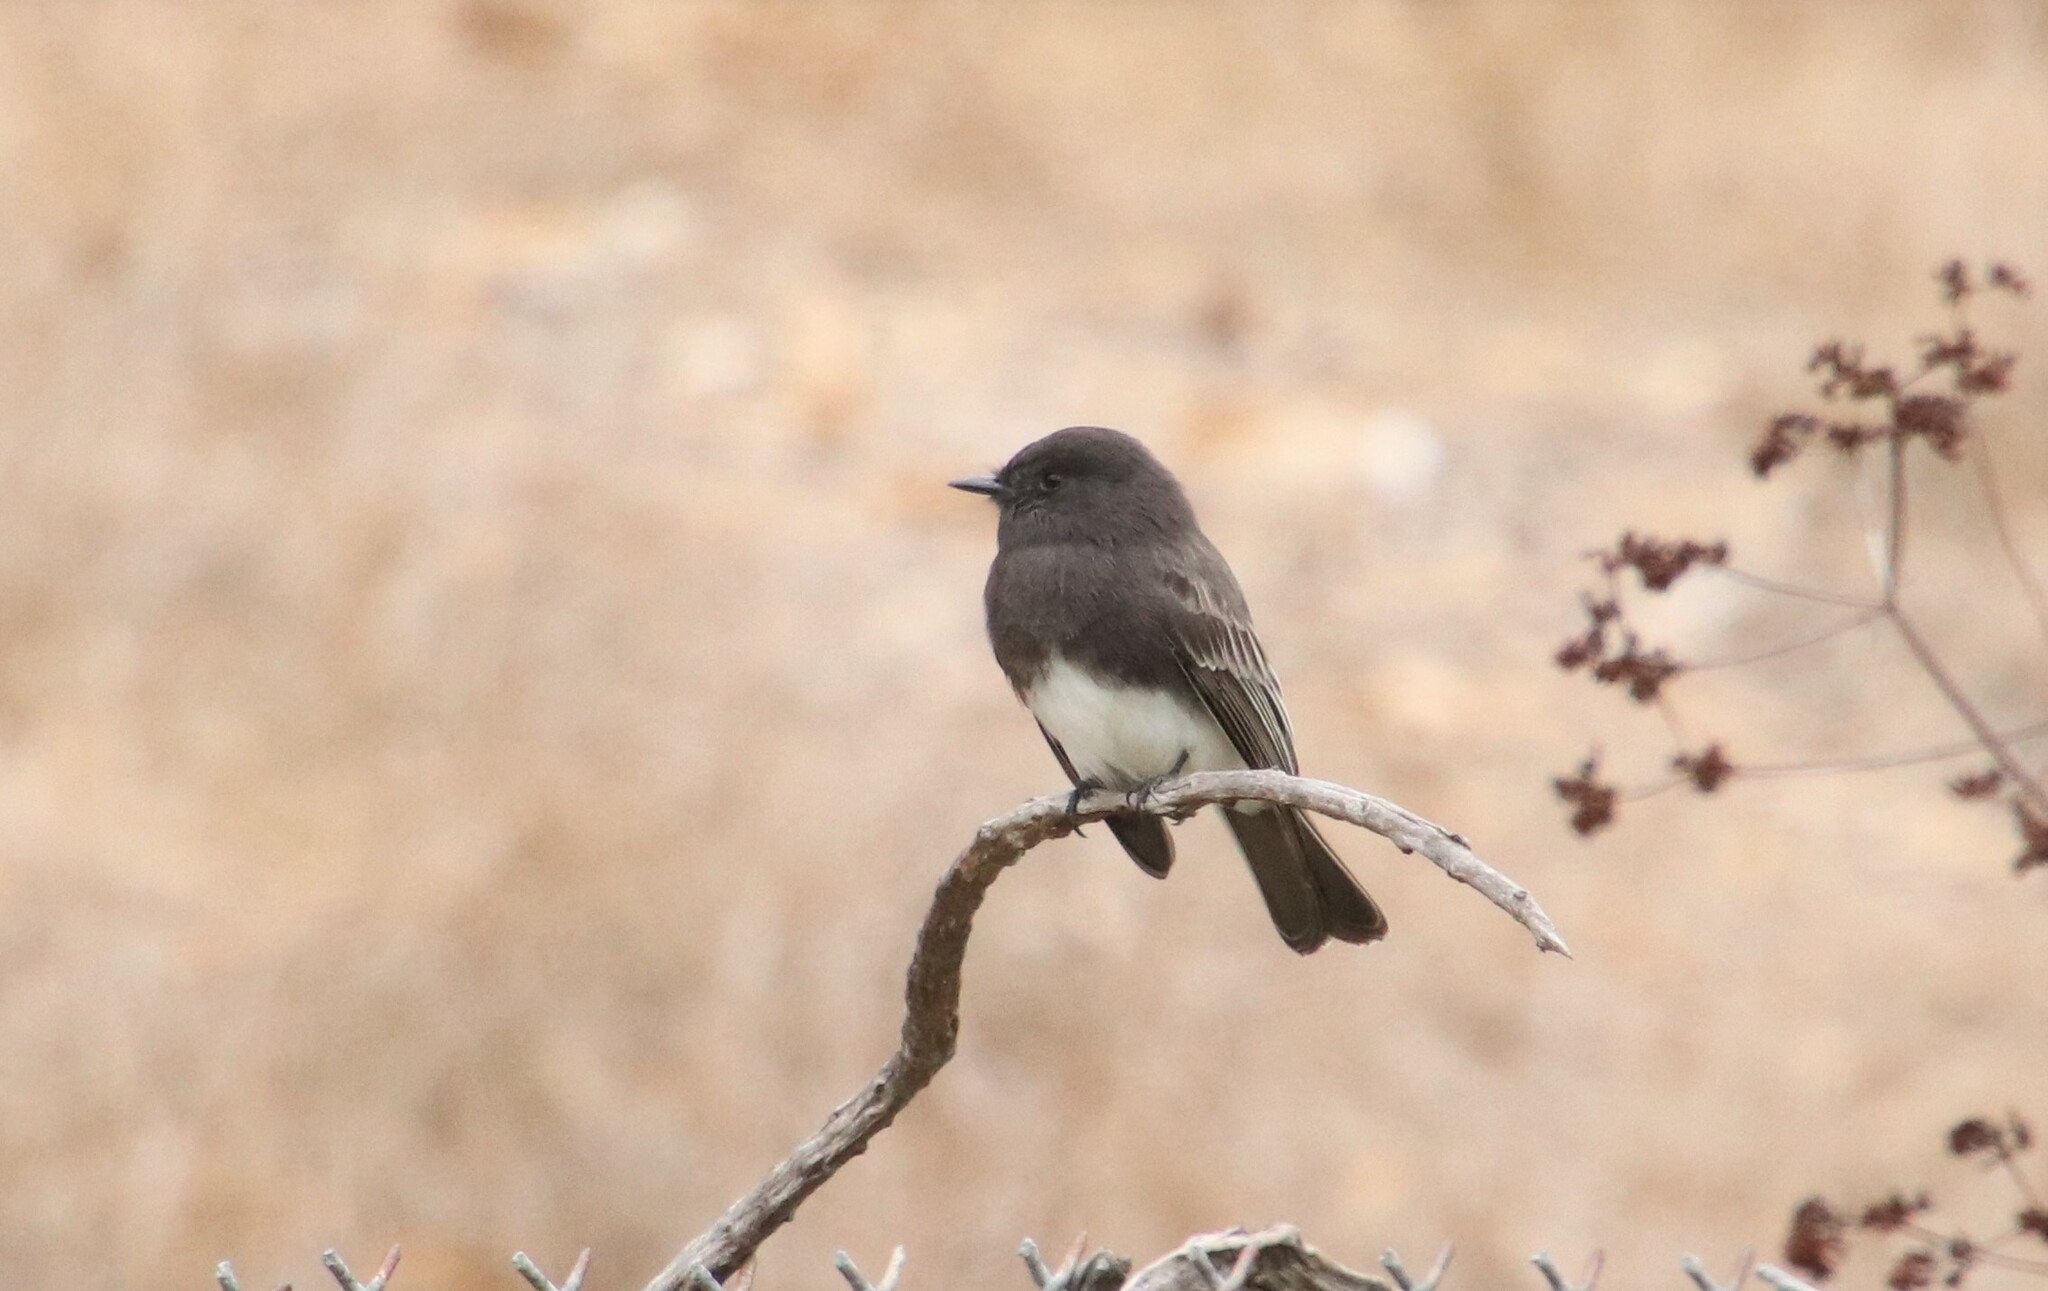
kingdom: Animalia
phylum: Chordata
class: Aves
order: Passeriformes
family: Tyrannidae
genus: Sayornis
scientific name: Sayornis nigricans
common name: Black phoebe
